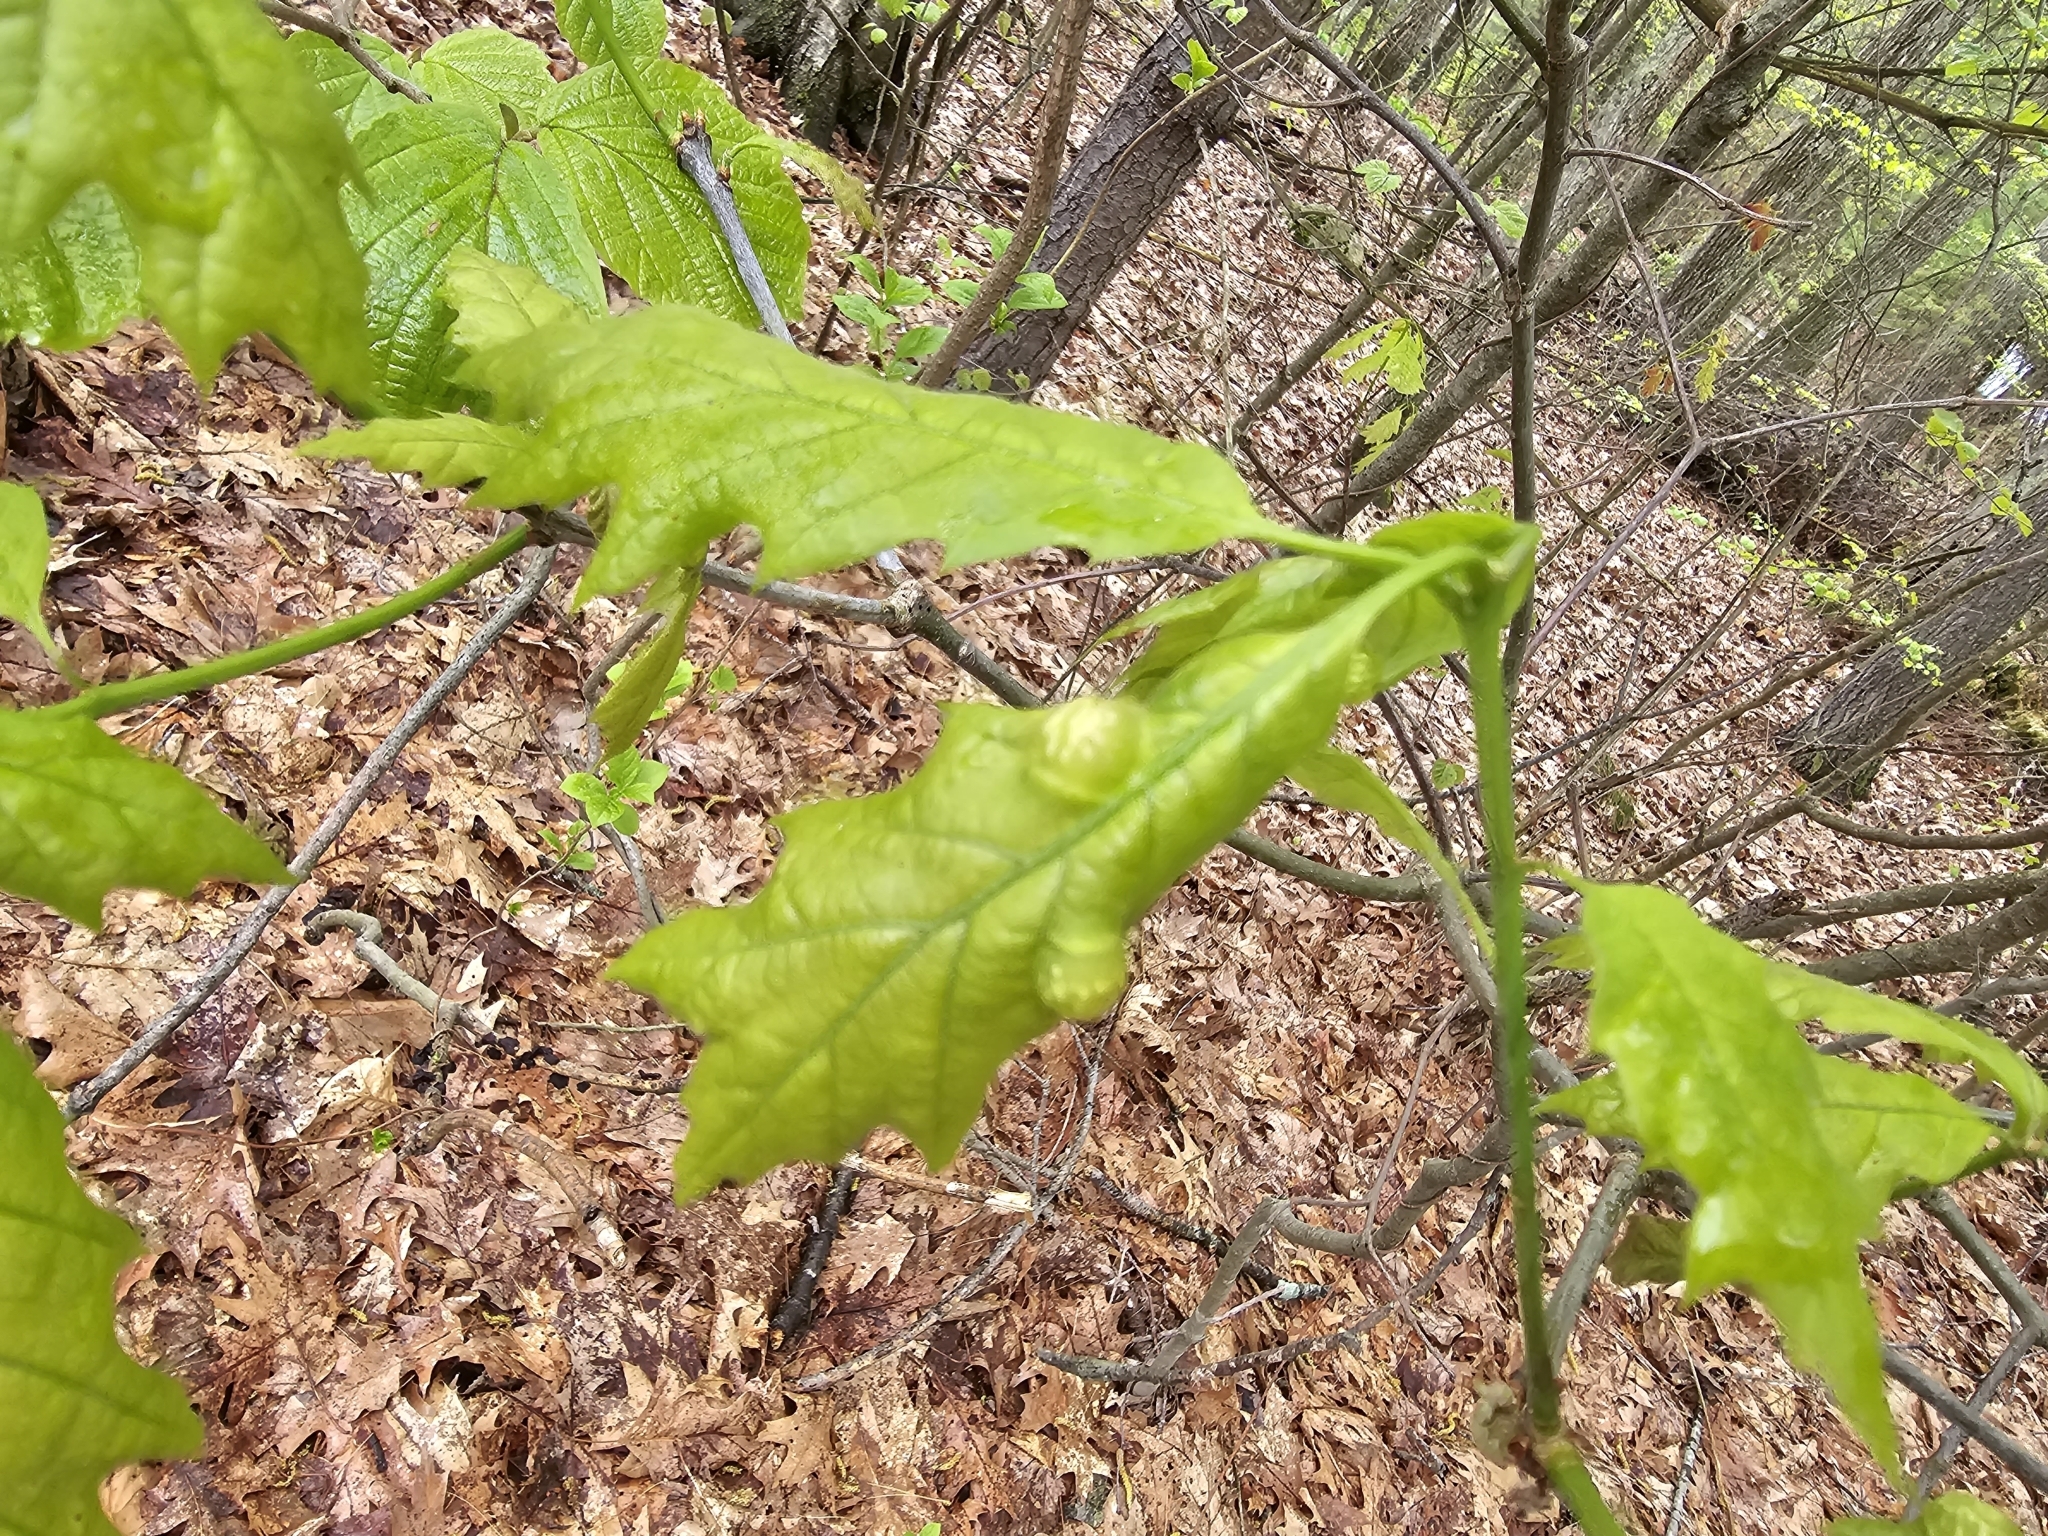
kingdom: Animalia
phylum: Arthropoda
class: Insecta
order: Hymenoptera
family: Cynipidae
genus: Dryocosmus
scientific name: Dryocosmus quercuspalustris
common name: Succulent oak gall wasp
